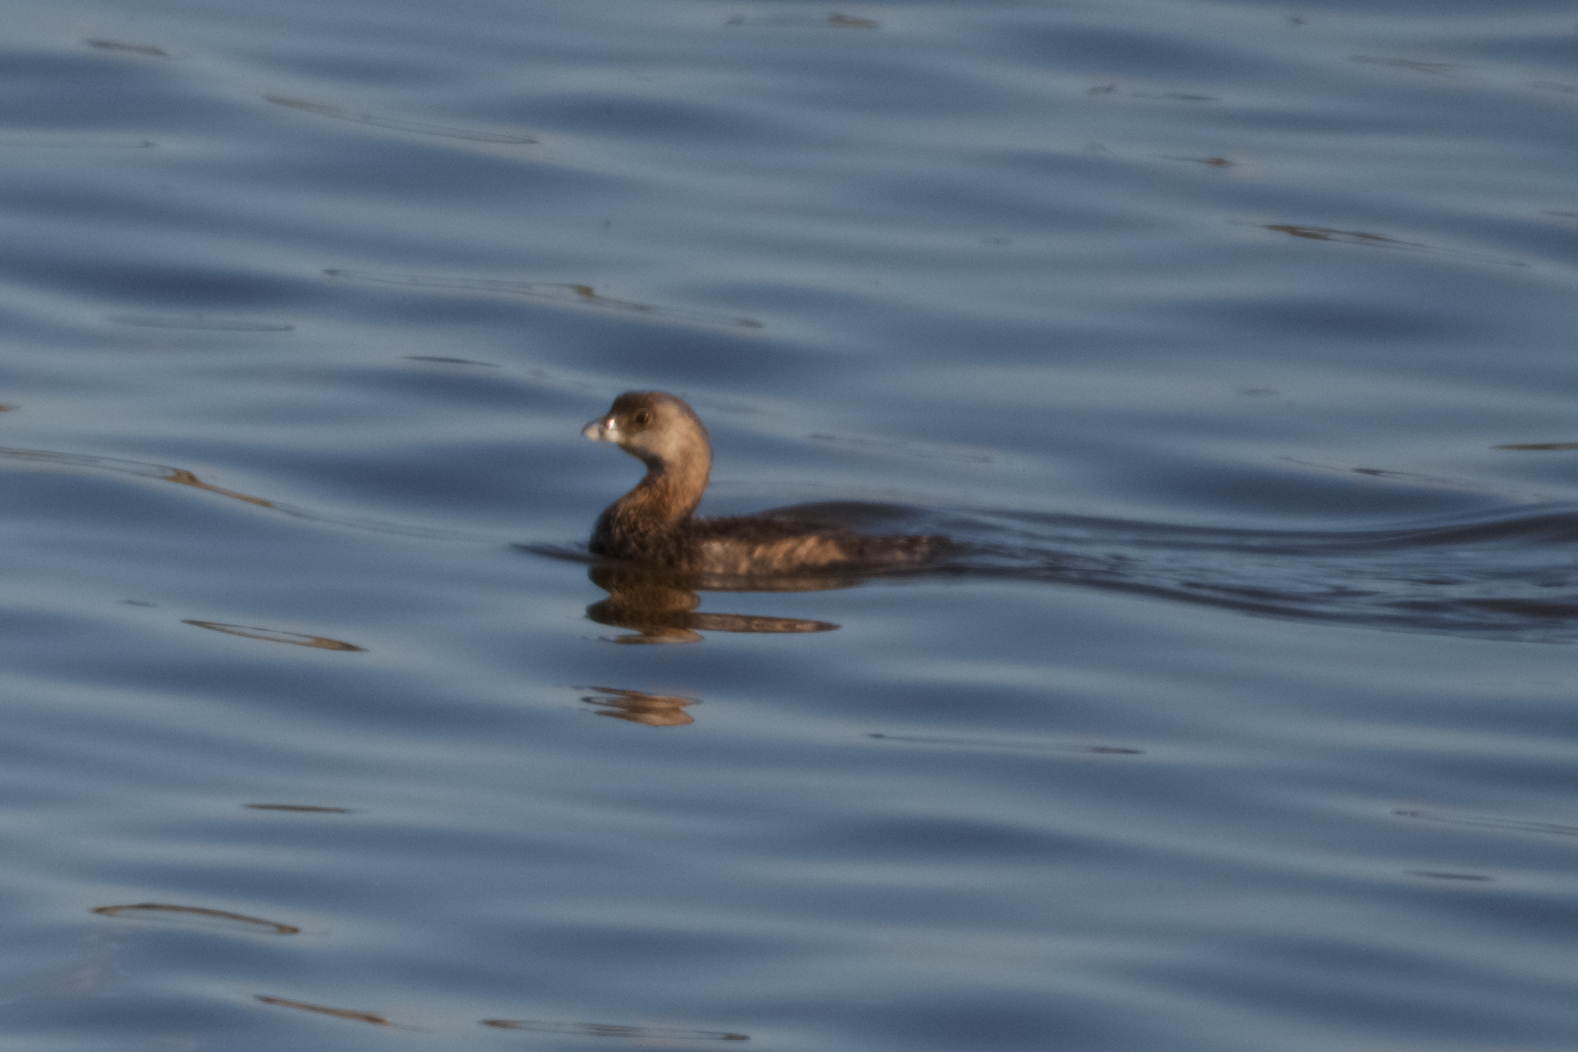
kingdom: Animalia
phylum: Chordata
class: Aves
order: Podicipediformes
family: Podicipedidae
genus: Podilymbus
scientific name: Podilymbus podiceps
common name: Pied-billed grebe
